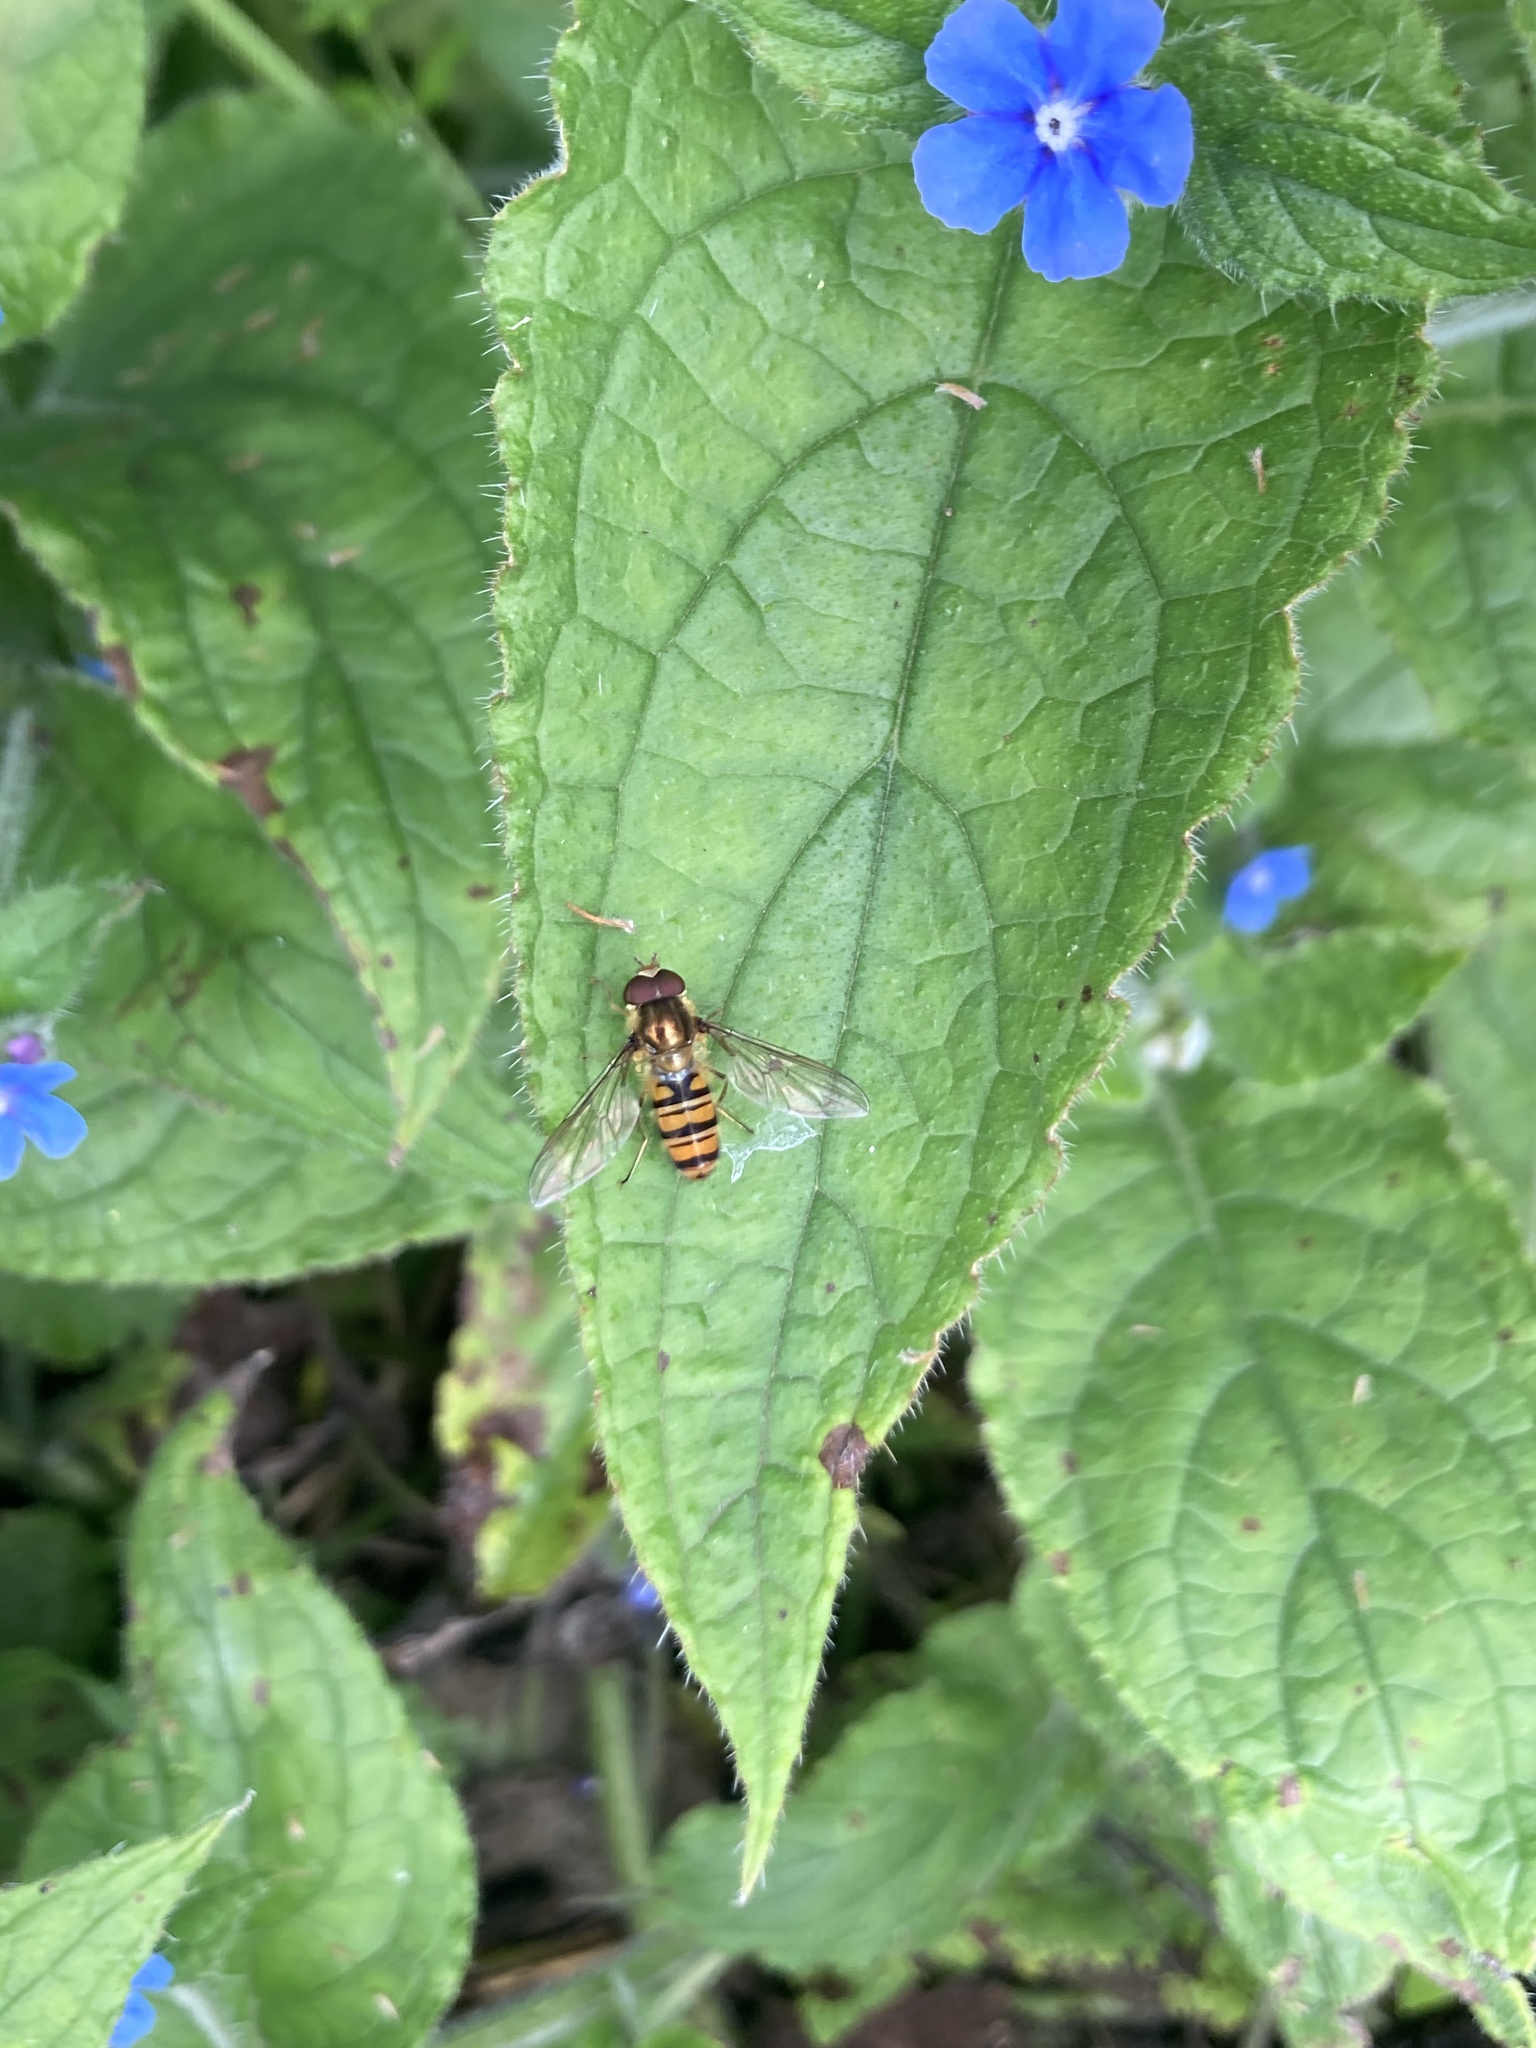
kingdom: Animalia
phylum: Arthropoda
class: Insecta
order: Diptera
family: Syrphidae
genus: Episyrphus
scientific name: Episyrphus balteatus
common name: Marmalade hoverfly
